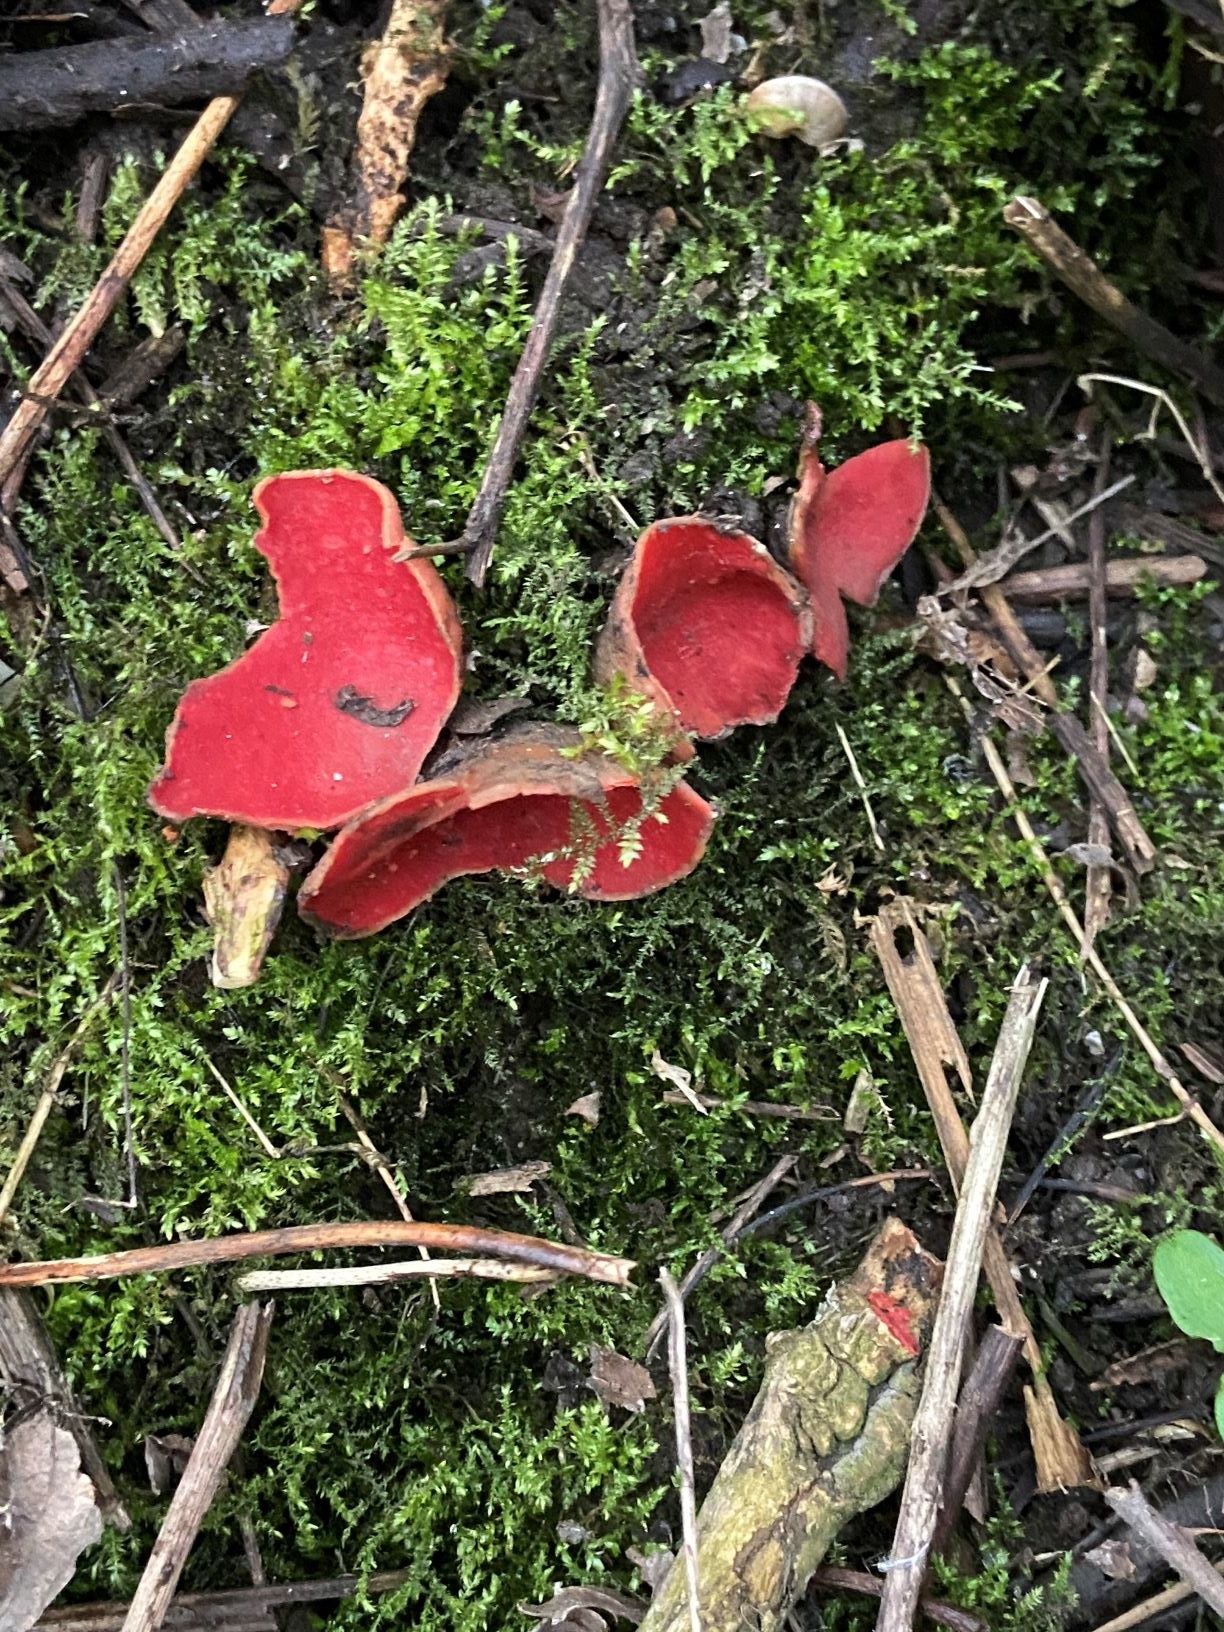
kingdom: Fungi
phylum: Ascomycota
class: Pezizomycetes
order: Pezizales
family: Sarcoscyphaceae
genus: Sarcoscypha
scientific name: Sarcoscypha
